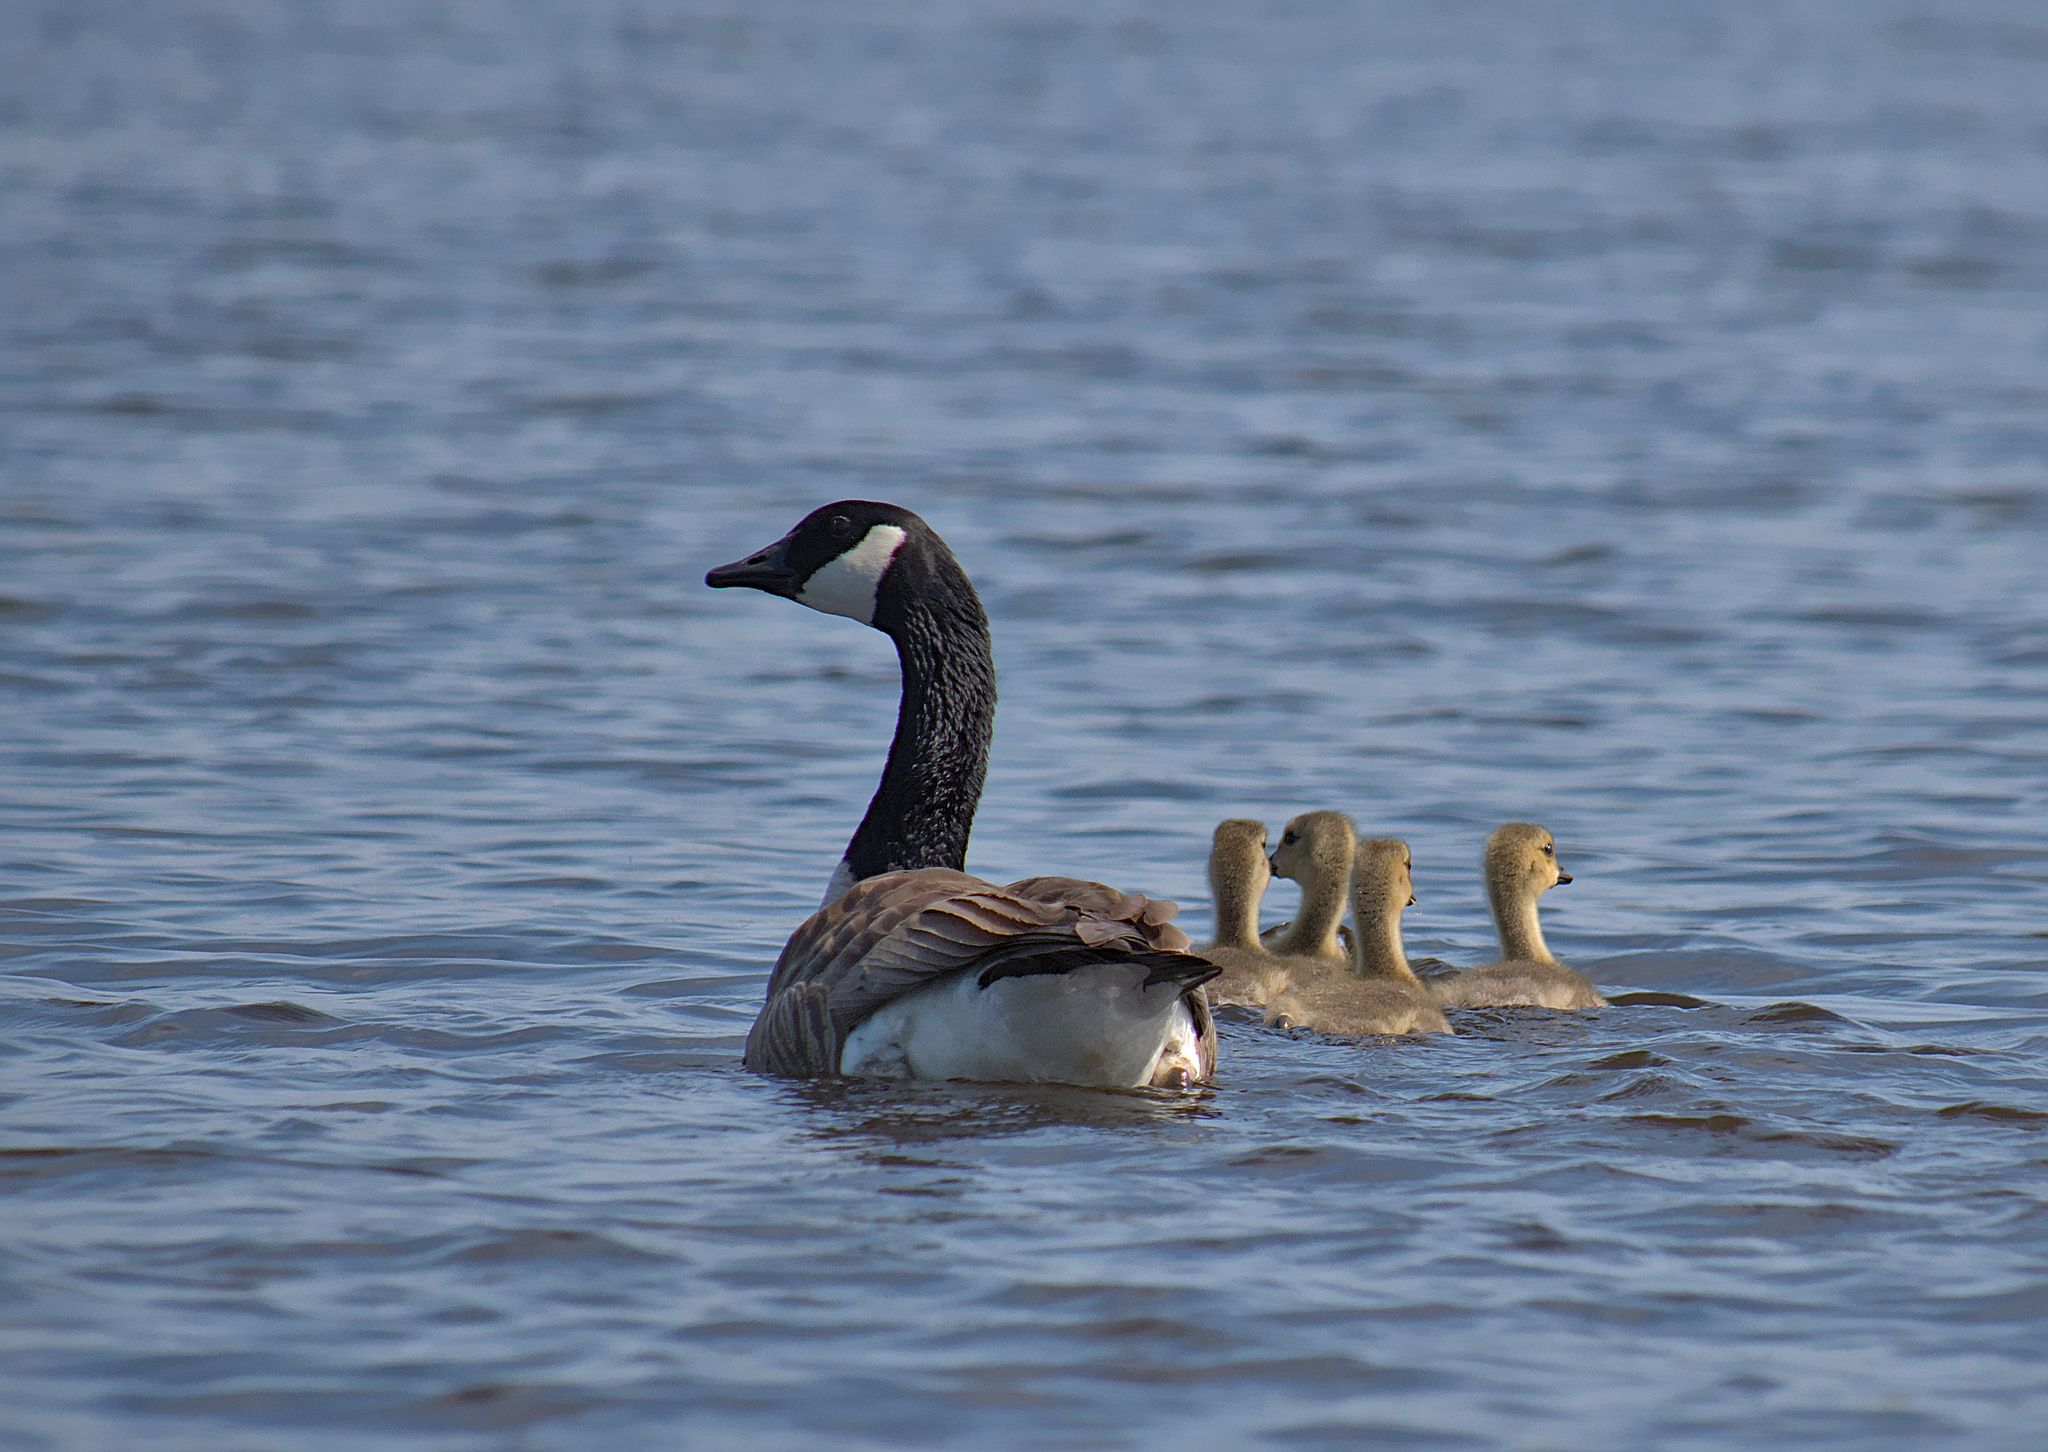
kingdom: Animalia
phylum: Chordata
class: Aves
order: Anseriformes
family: Anatidae
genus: Branta
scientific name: Branta canadensis
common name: Canada goose
